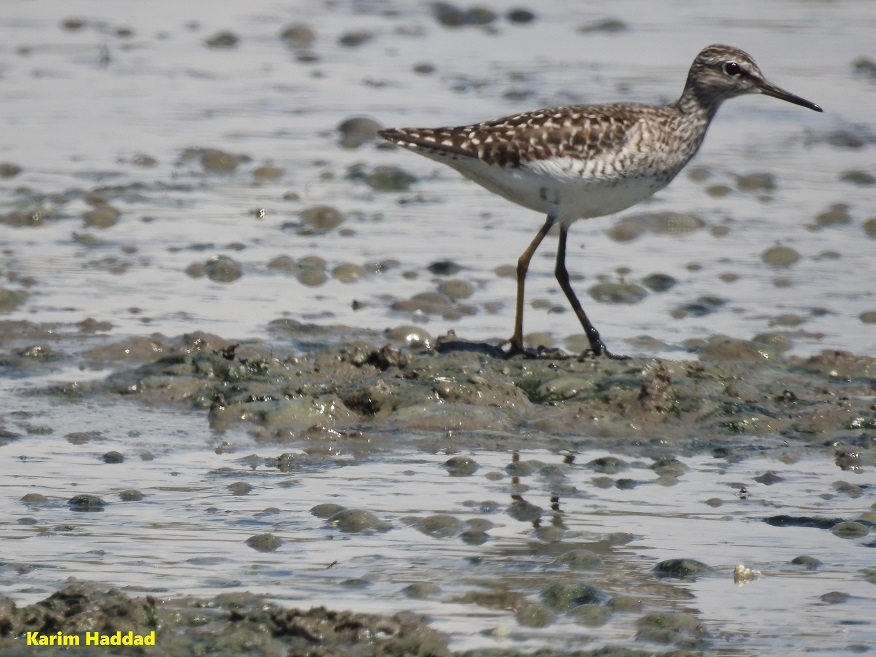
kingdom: Animalia
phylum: Chordata
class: Aves
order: Charadriiformes
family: Scolopacidae
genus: Tringa
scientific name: Tringa glareola
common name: Wood sandpiper
